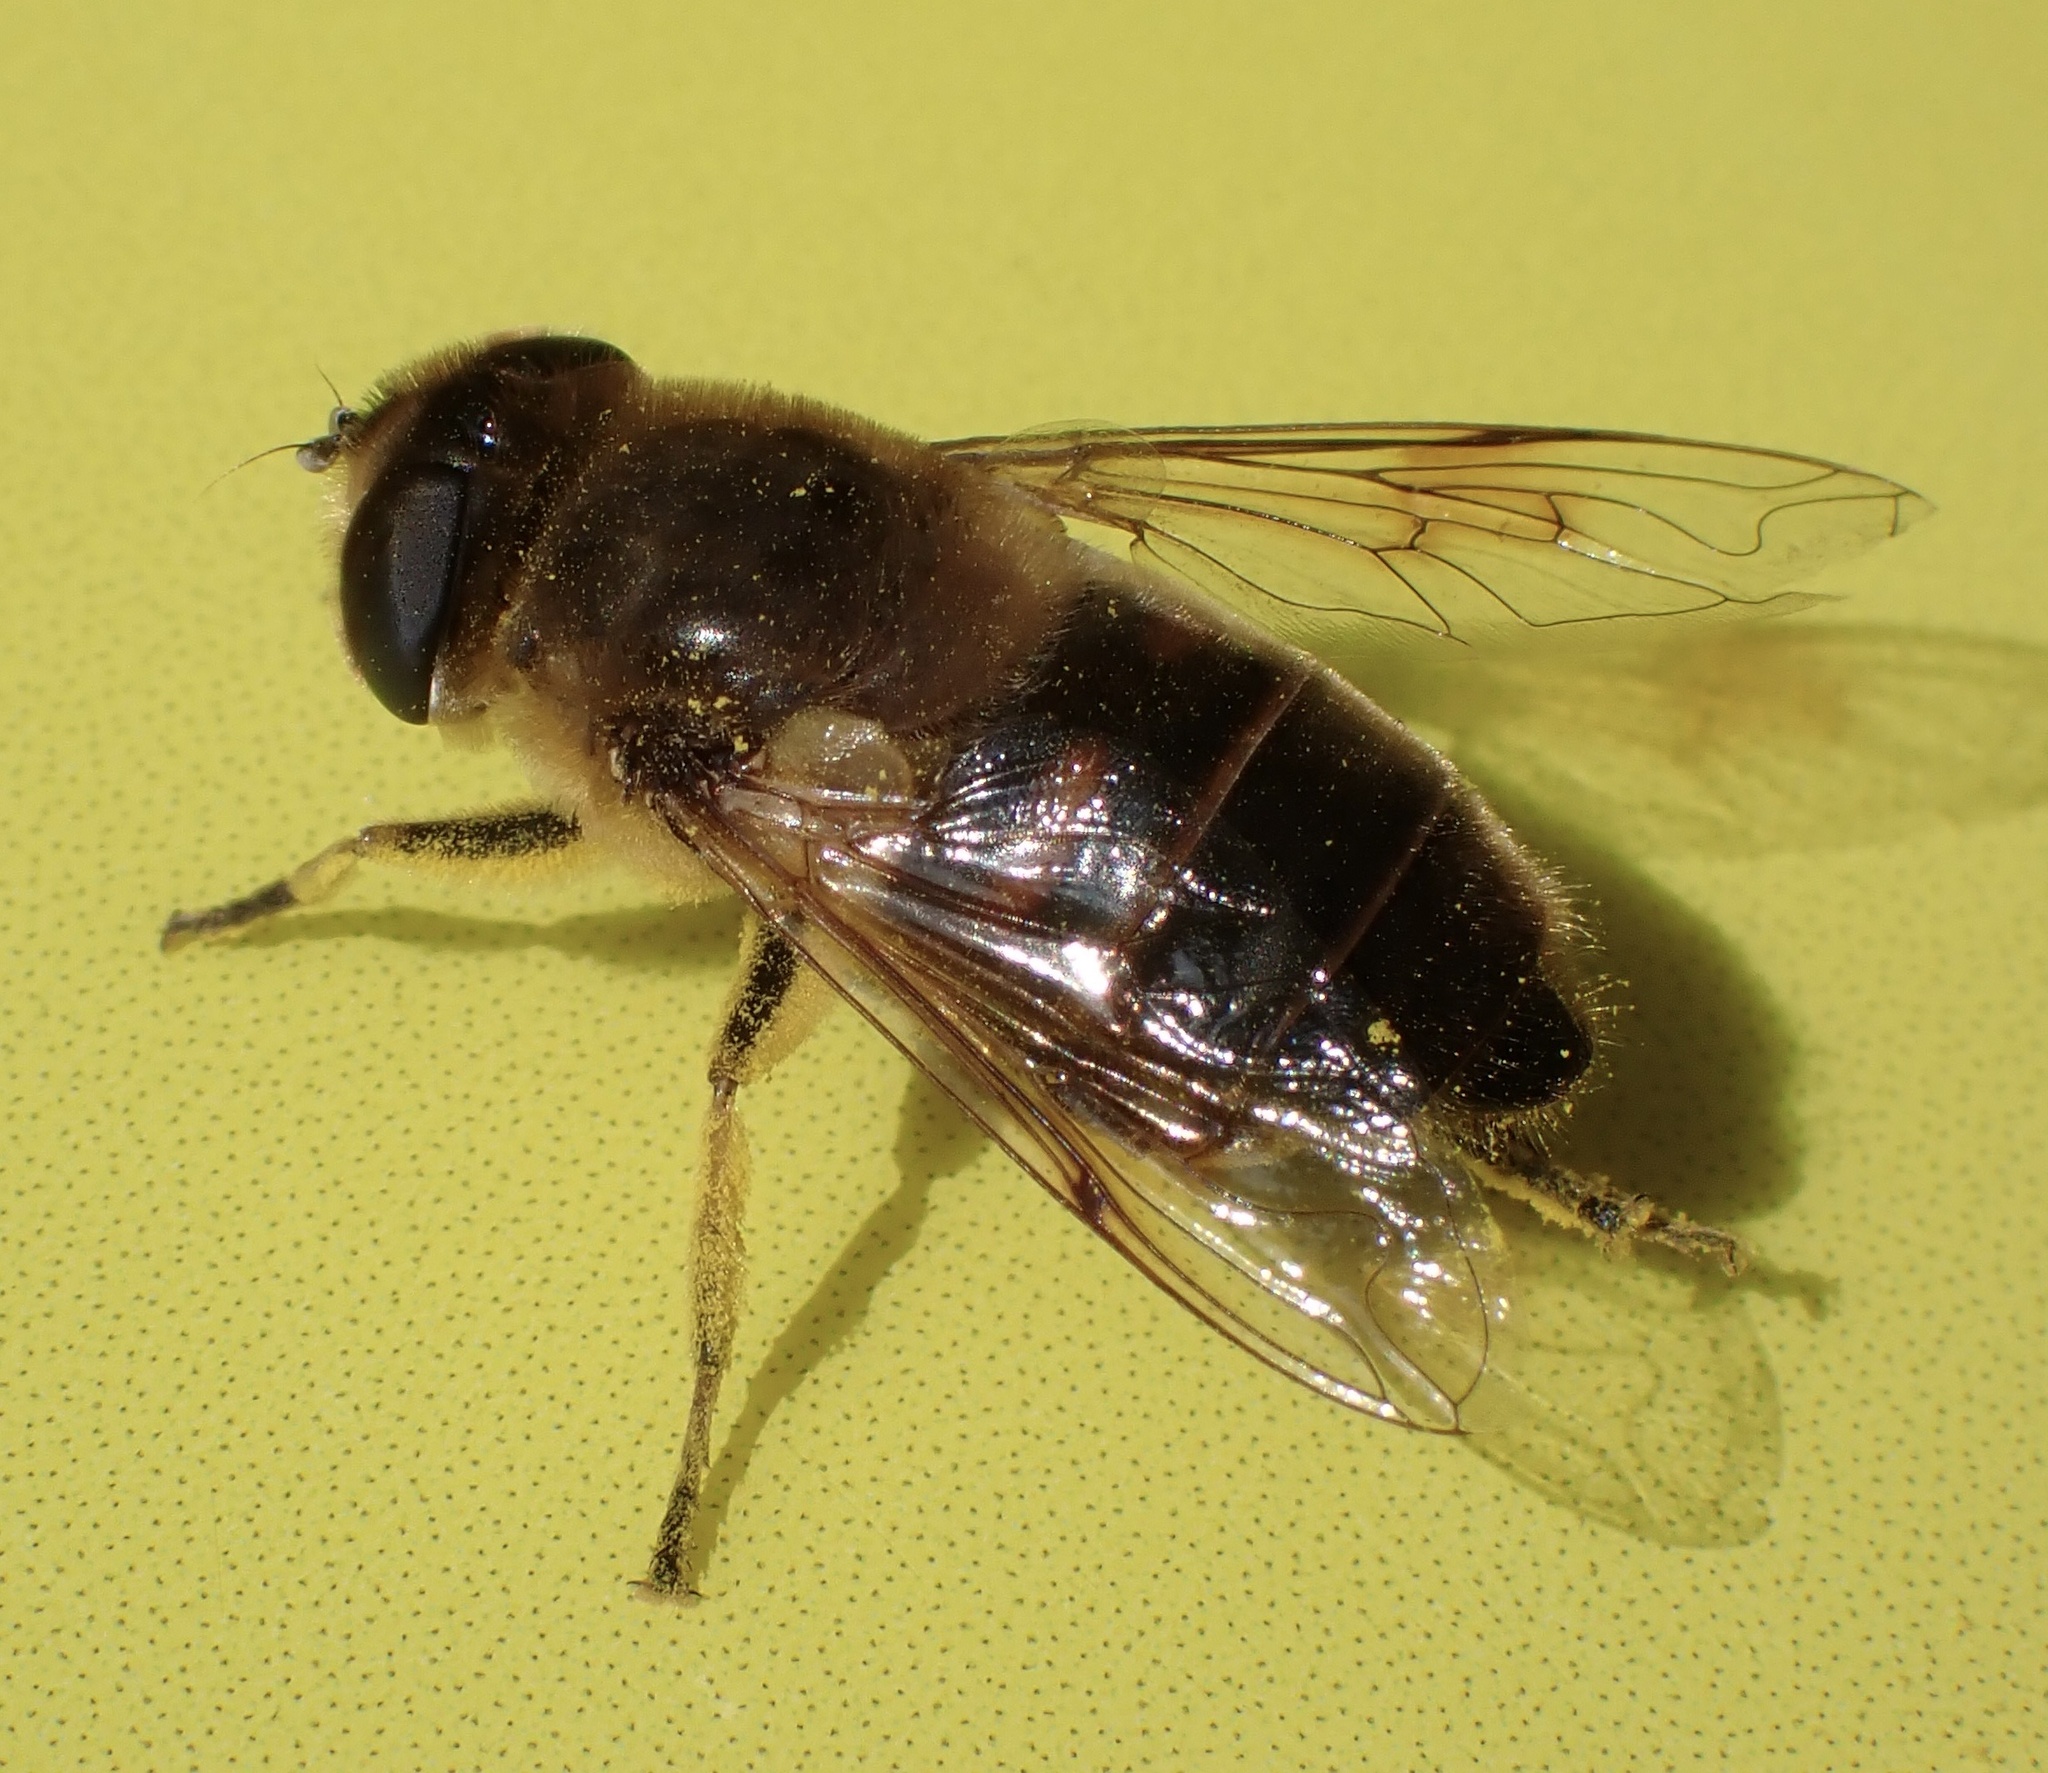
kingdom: Animalia
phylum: Arthropoda
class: Insecta
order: Diptera
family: Syrphidae
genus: Eristalis
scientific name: Eristalis tenax
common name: Drone fly
